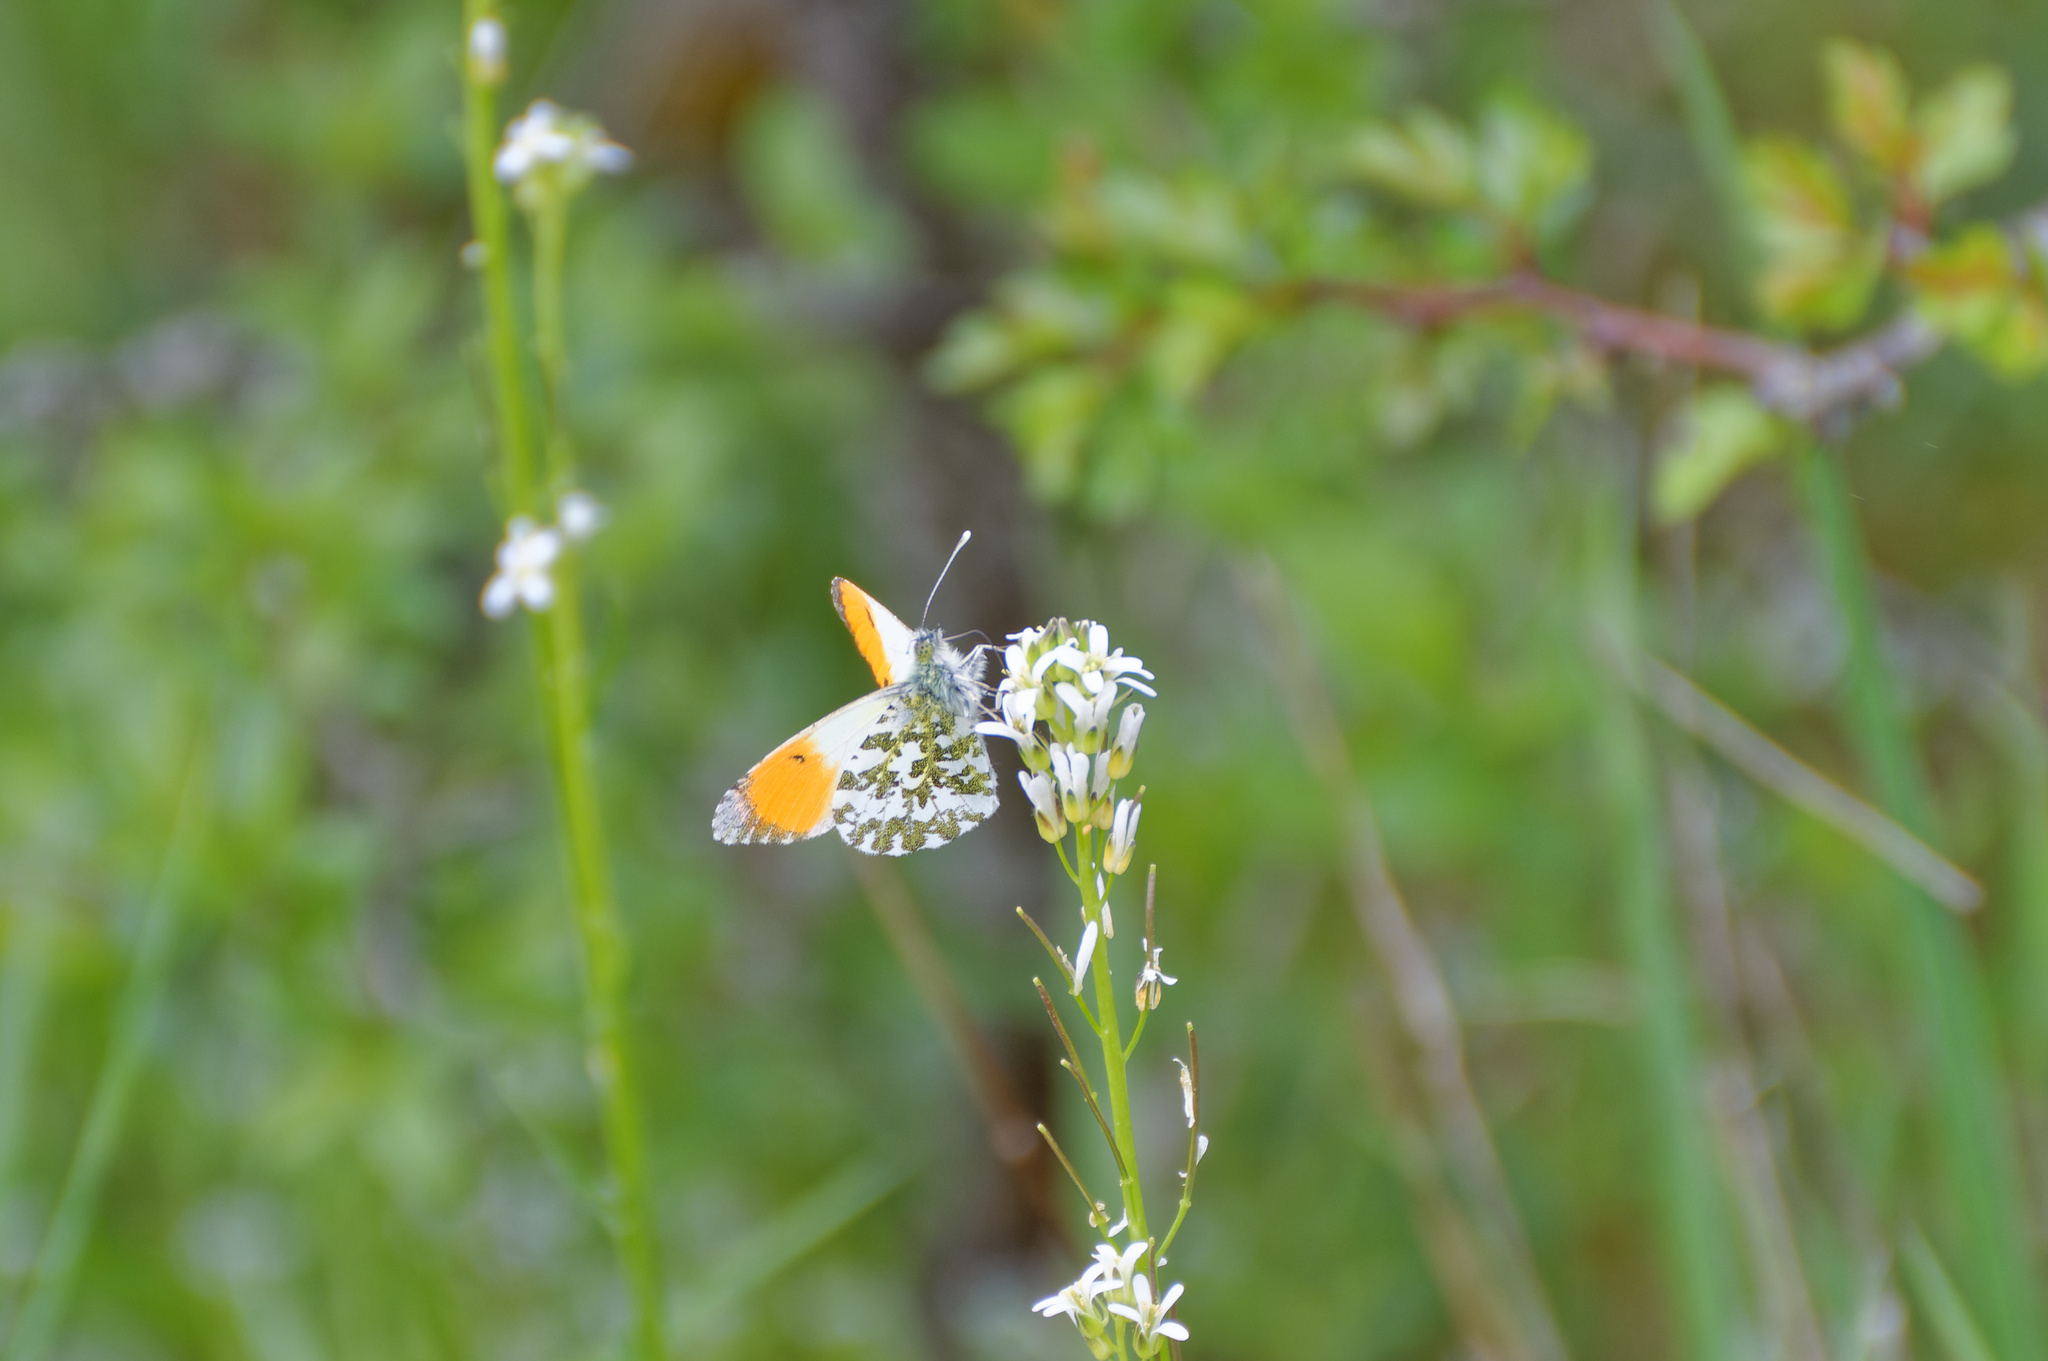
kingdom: Animalia
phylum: Arthropoda
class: Insecta
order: Lepidoptera
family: Pieridae
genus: Anthocharis
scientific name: Anthocharis cardamines
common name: Orange-tip
